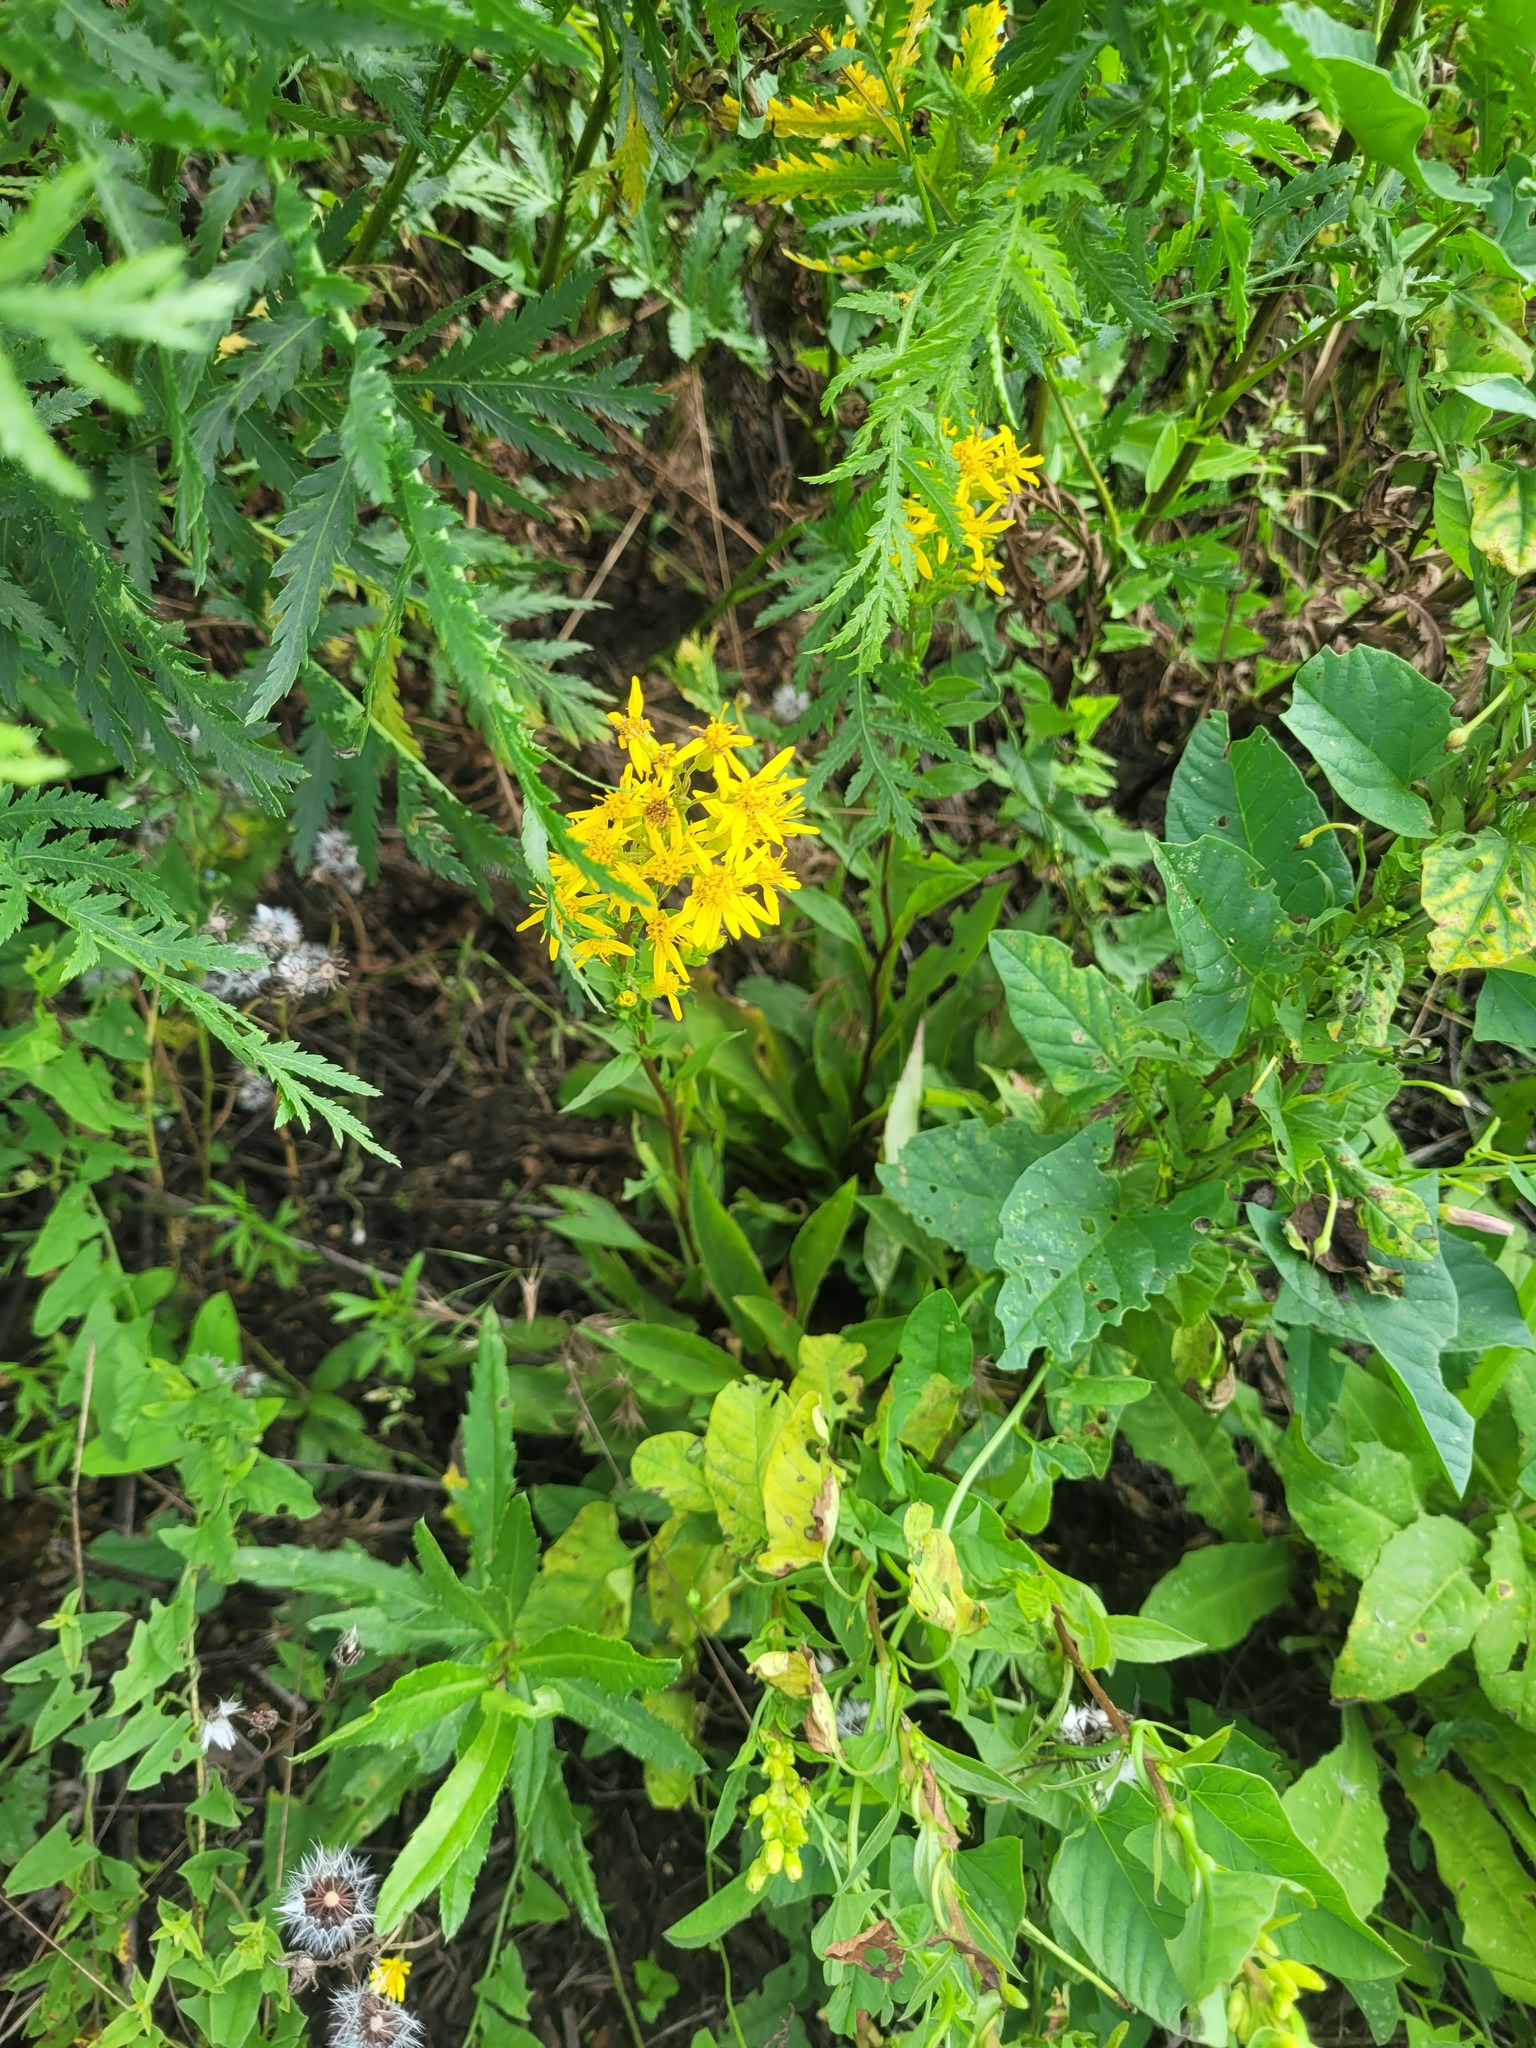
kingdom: Plantae
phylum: Tracheophyta
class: Magnoliopsida
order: Asterales
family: Asteraceae
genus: Solidago
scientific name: Solidago virgaurea
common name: Goldenrod
